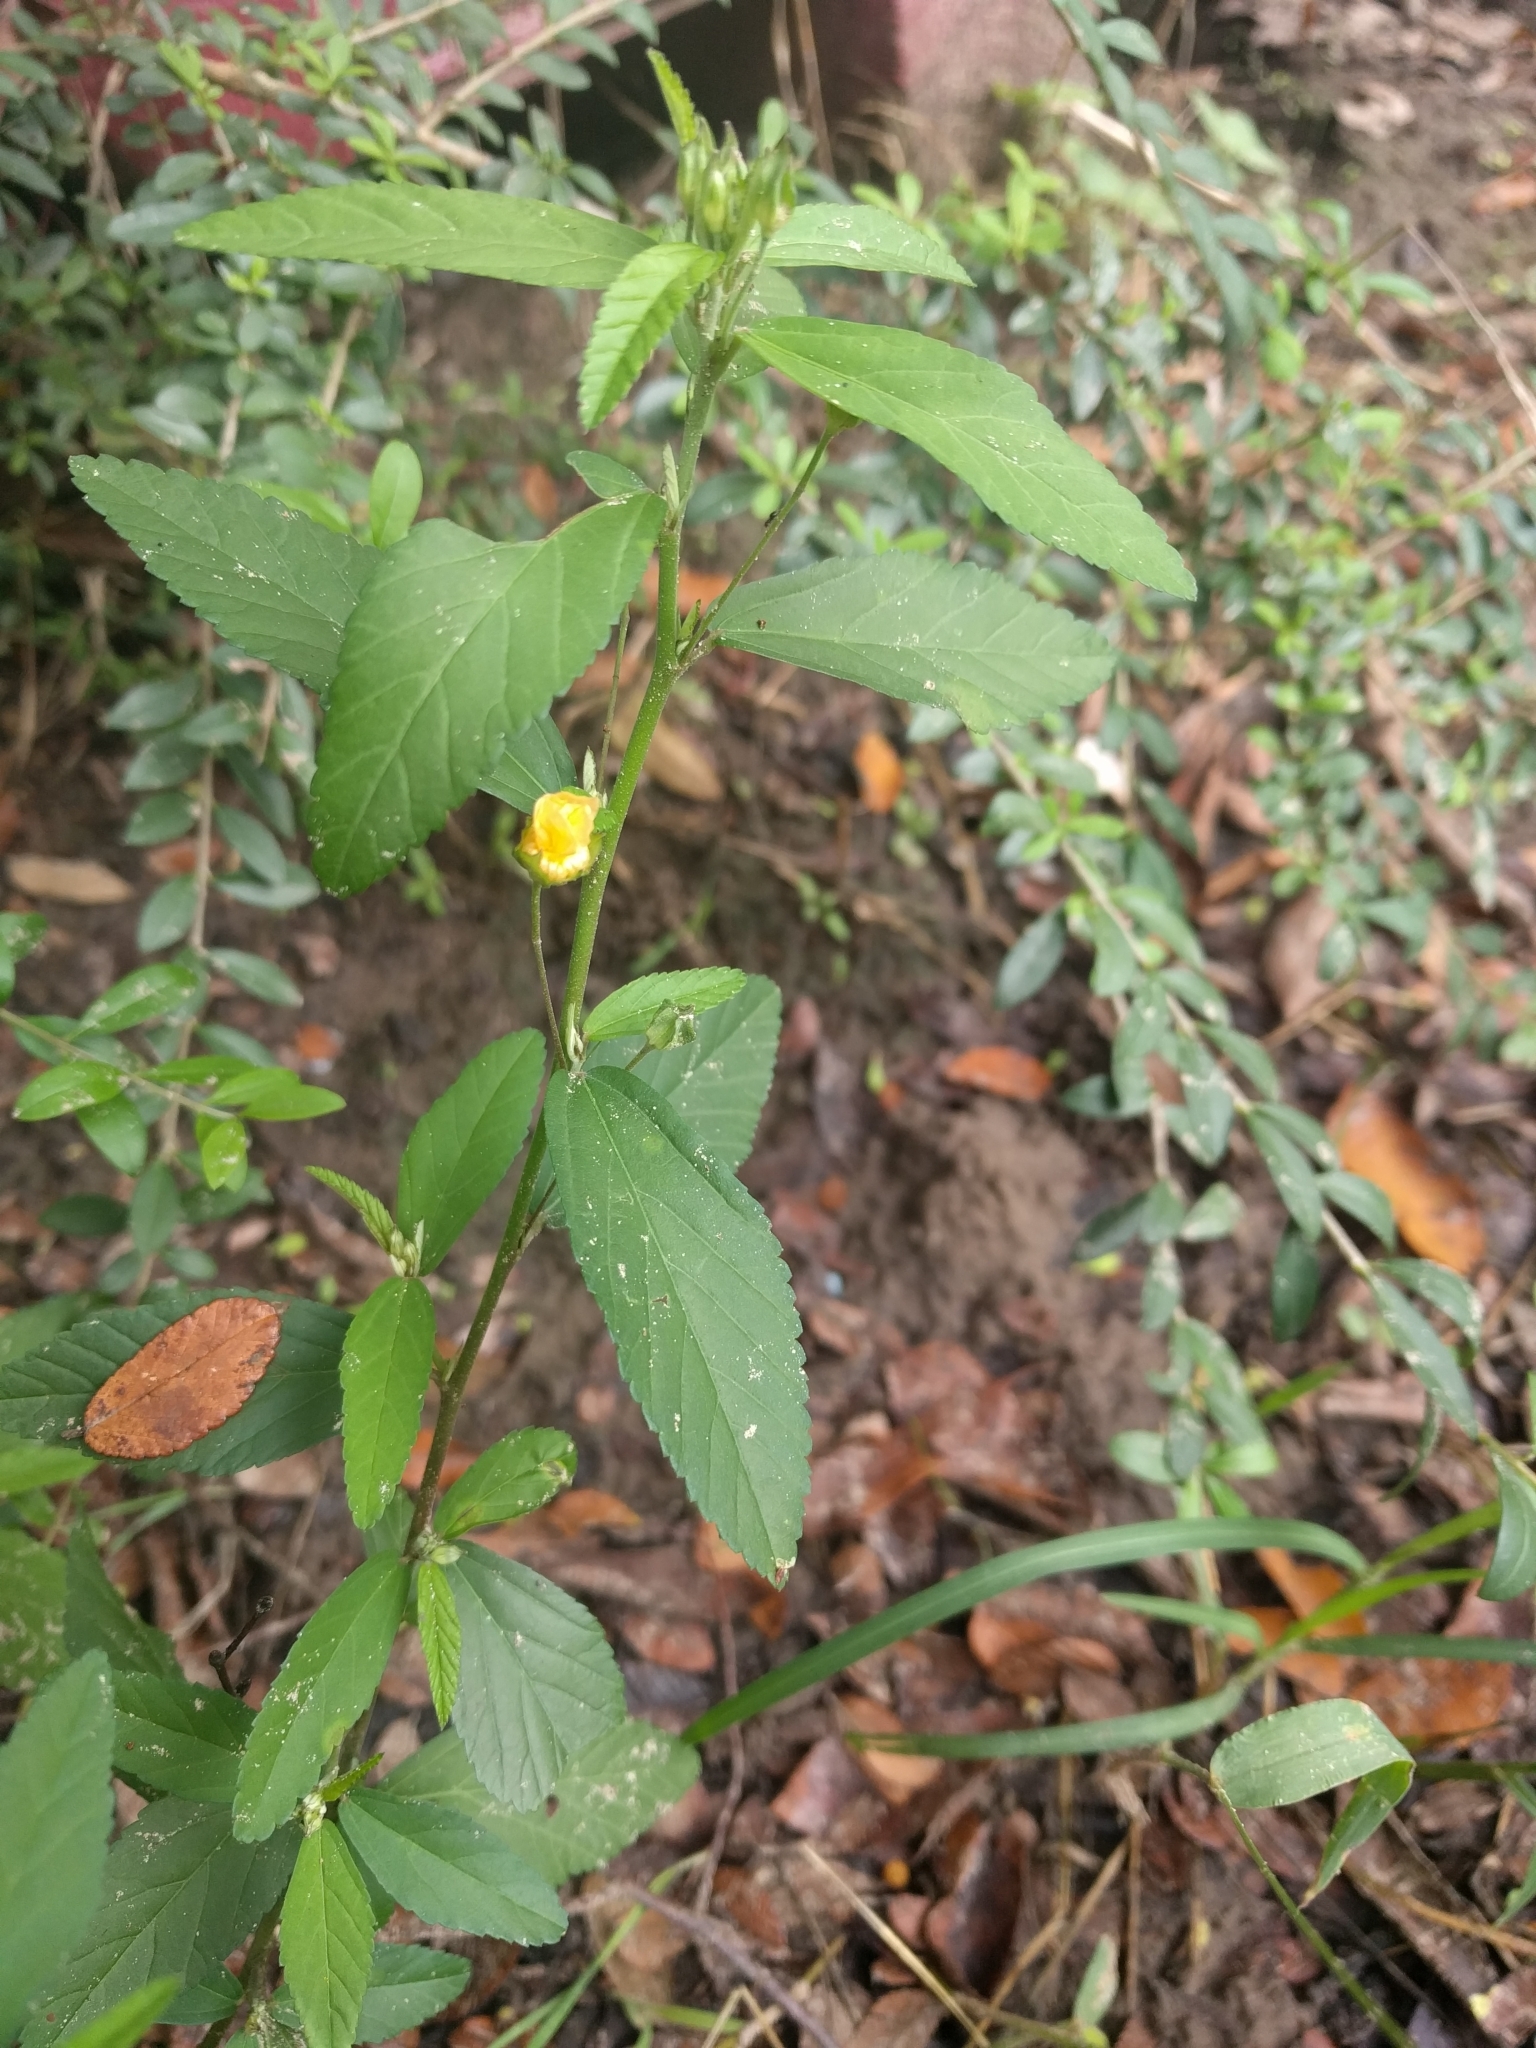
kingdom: Plantae
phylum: Tracheophyta
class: Magnoliopsida
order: Malvales
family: Malvaceae
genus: Sida
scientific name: Sida rhombifolia
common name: Queensland-hemp
